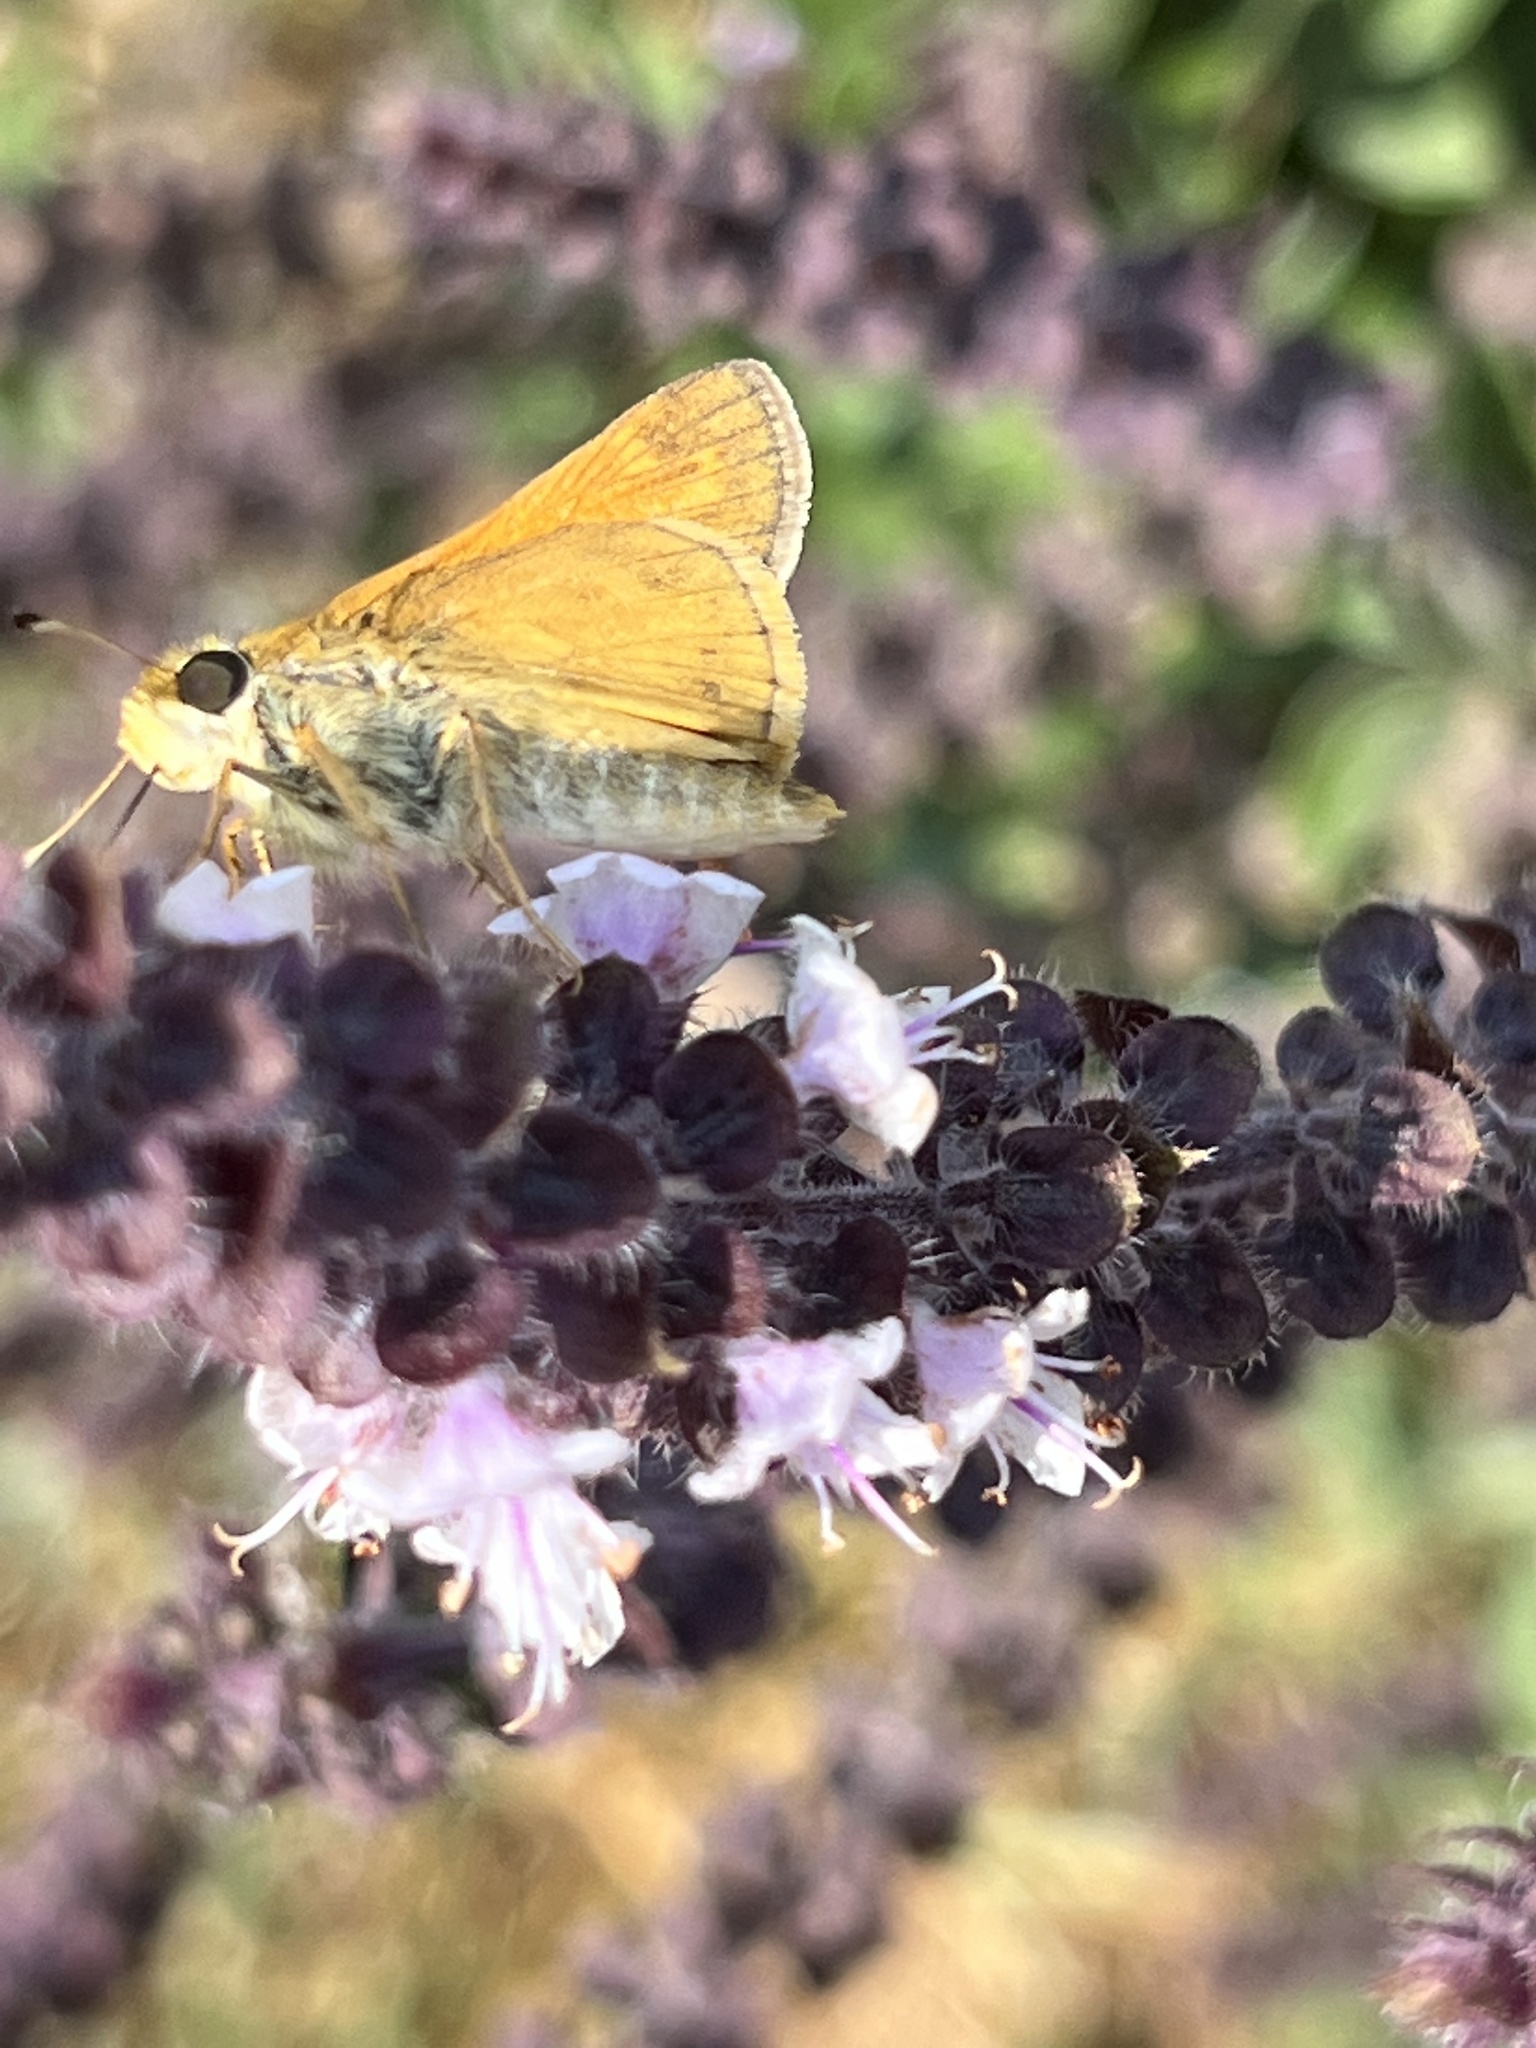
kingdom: Animalia
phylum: Arthropoda
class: Insecta
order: Lepidoptera
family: Hesperiidae
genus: Atalopedes
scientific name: Atalopedes
